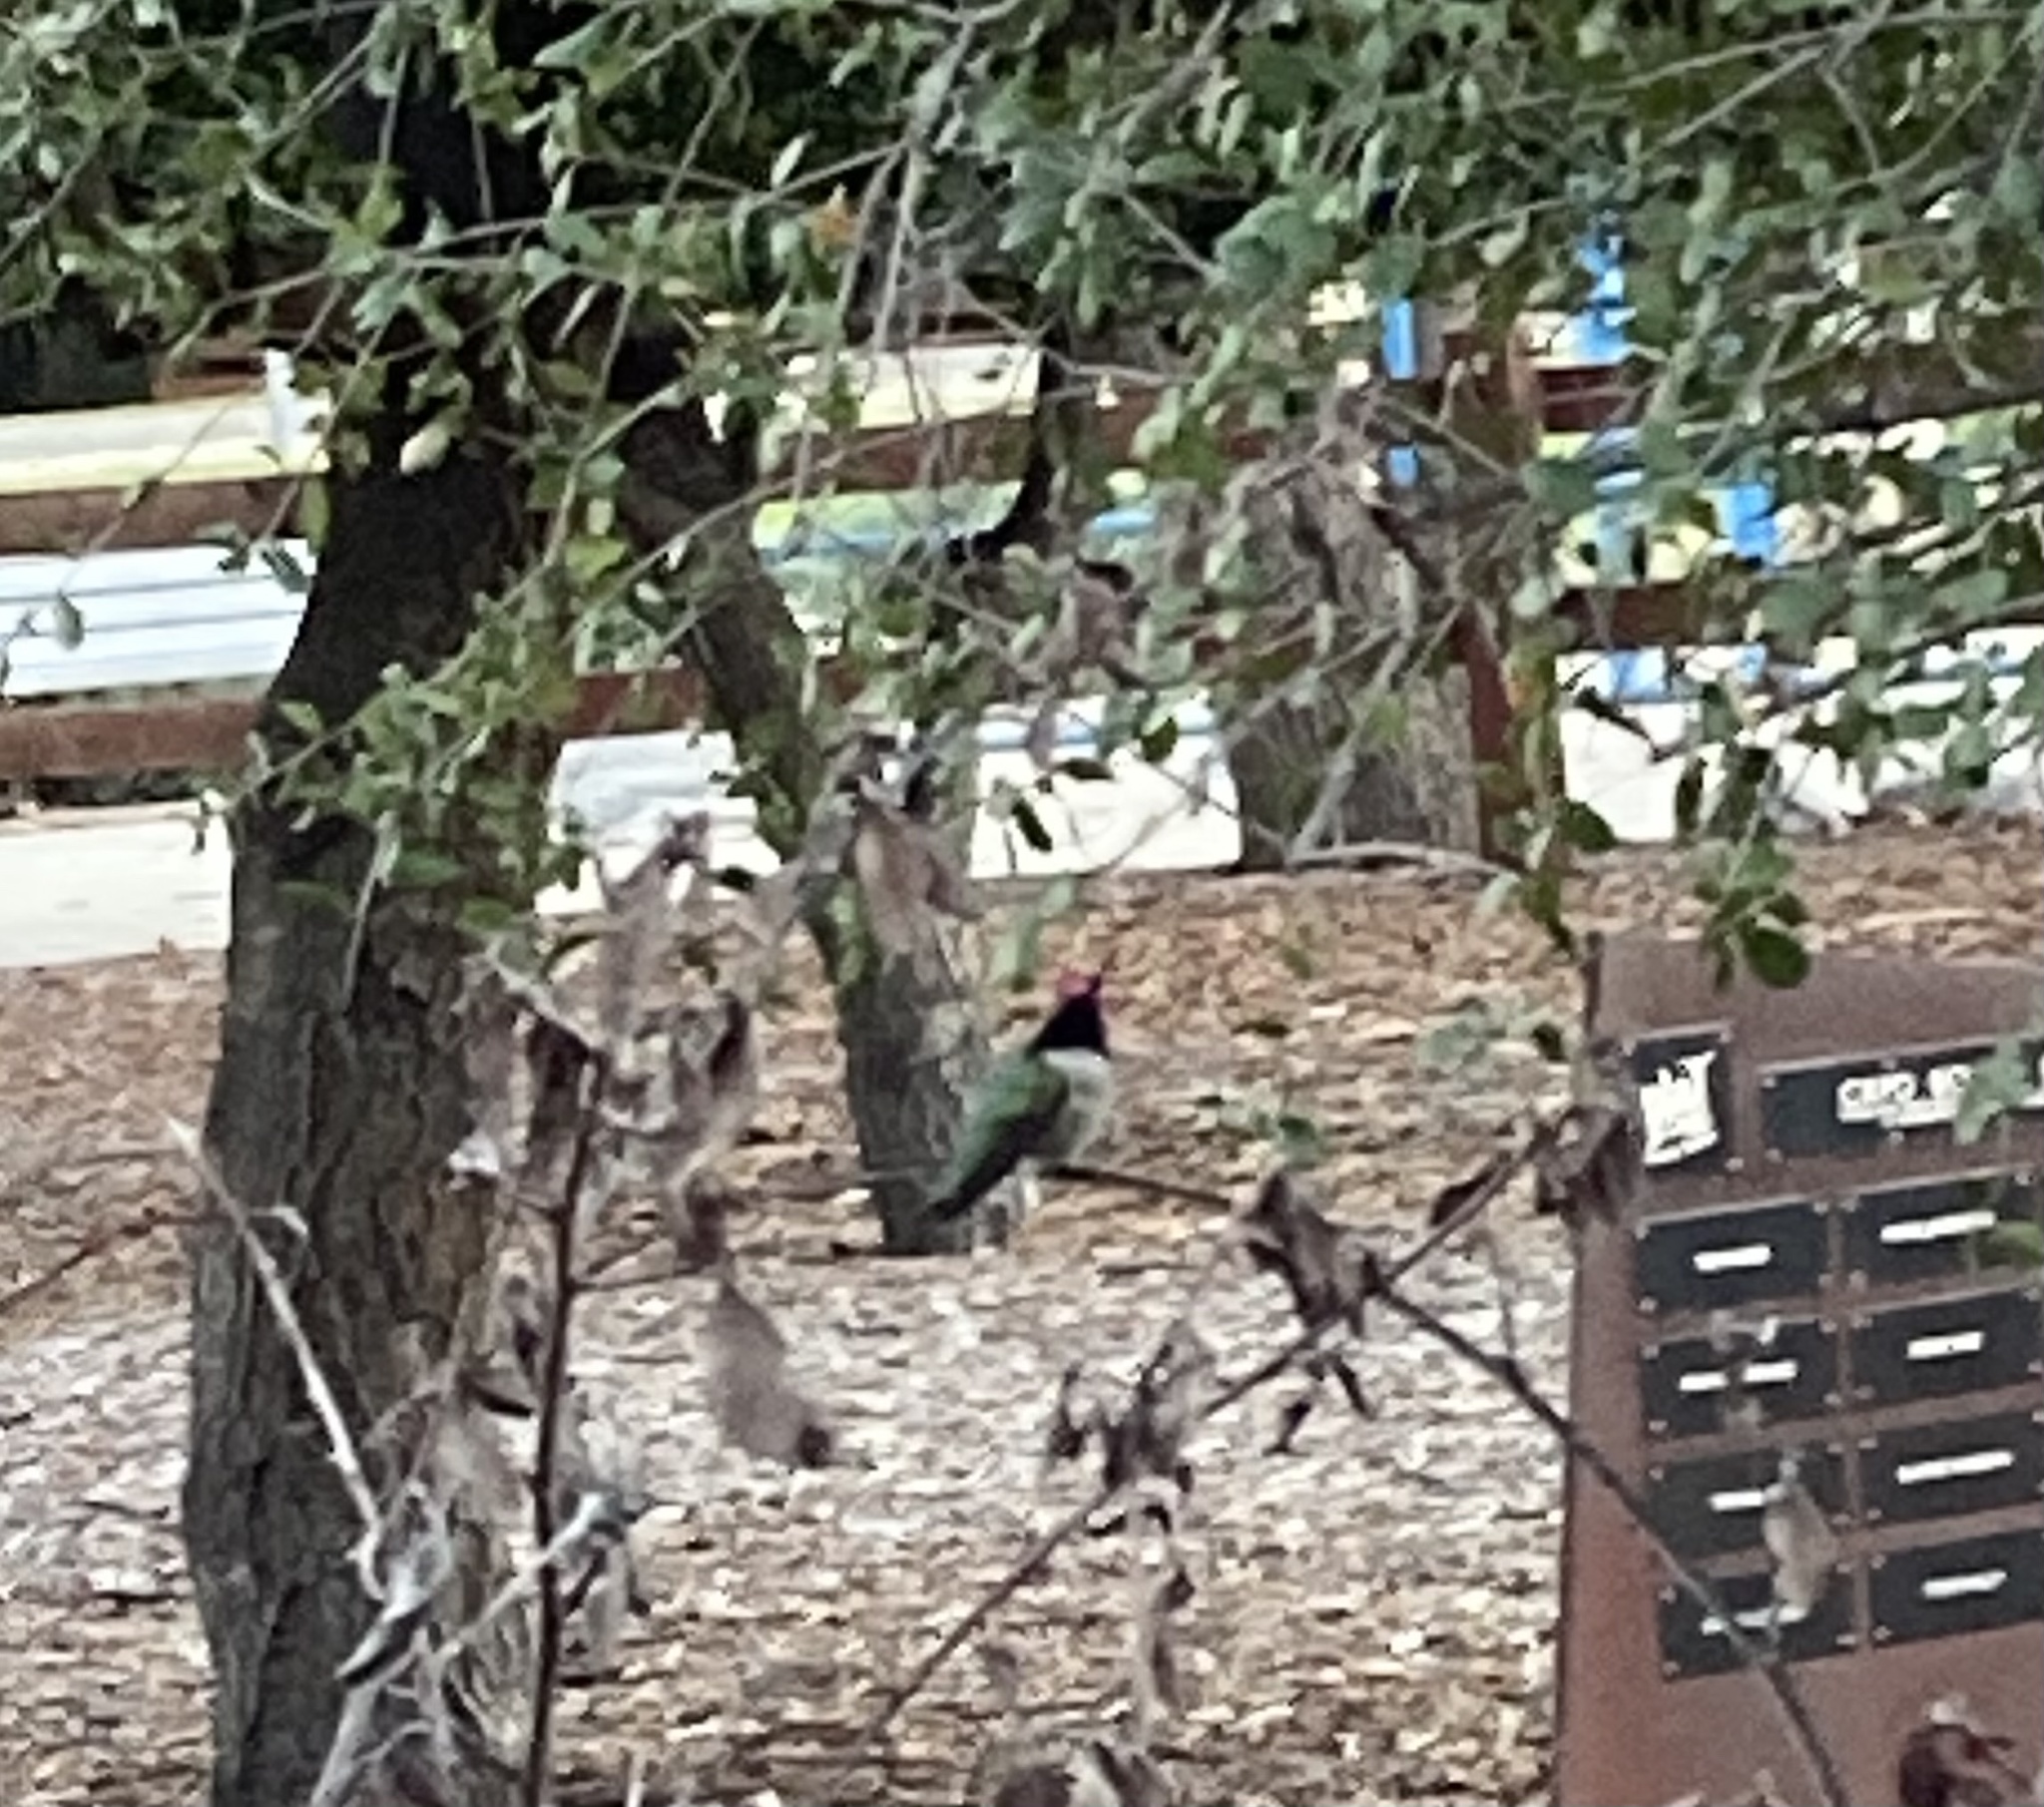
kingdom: Animalia
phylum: Chordata
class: Aves
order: Apodiformes
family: Trochilidae
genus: Calypte
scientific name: Calypte anna
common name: Anna's hummingbird
